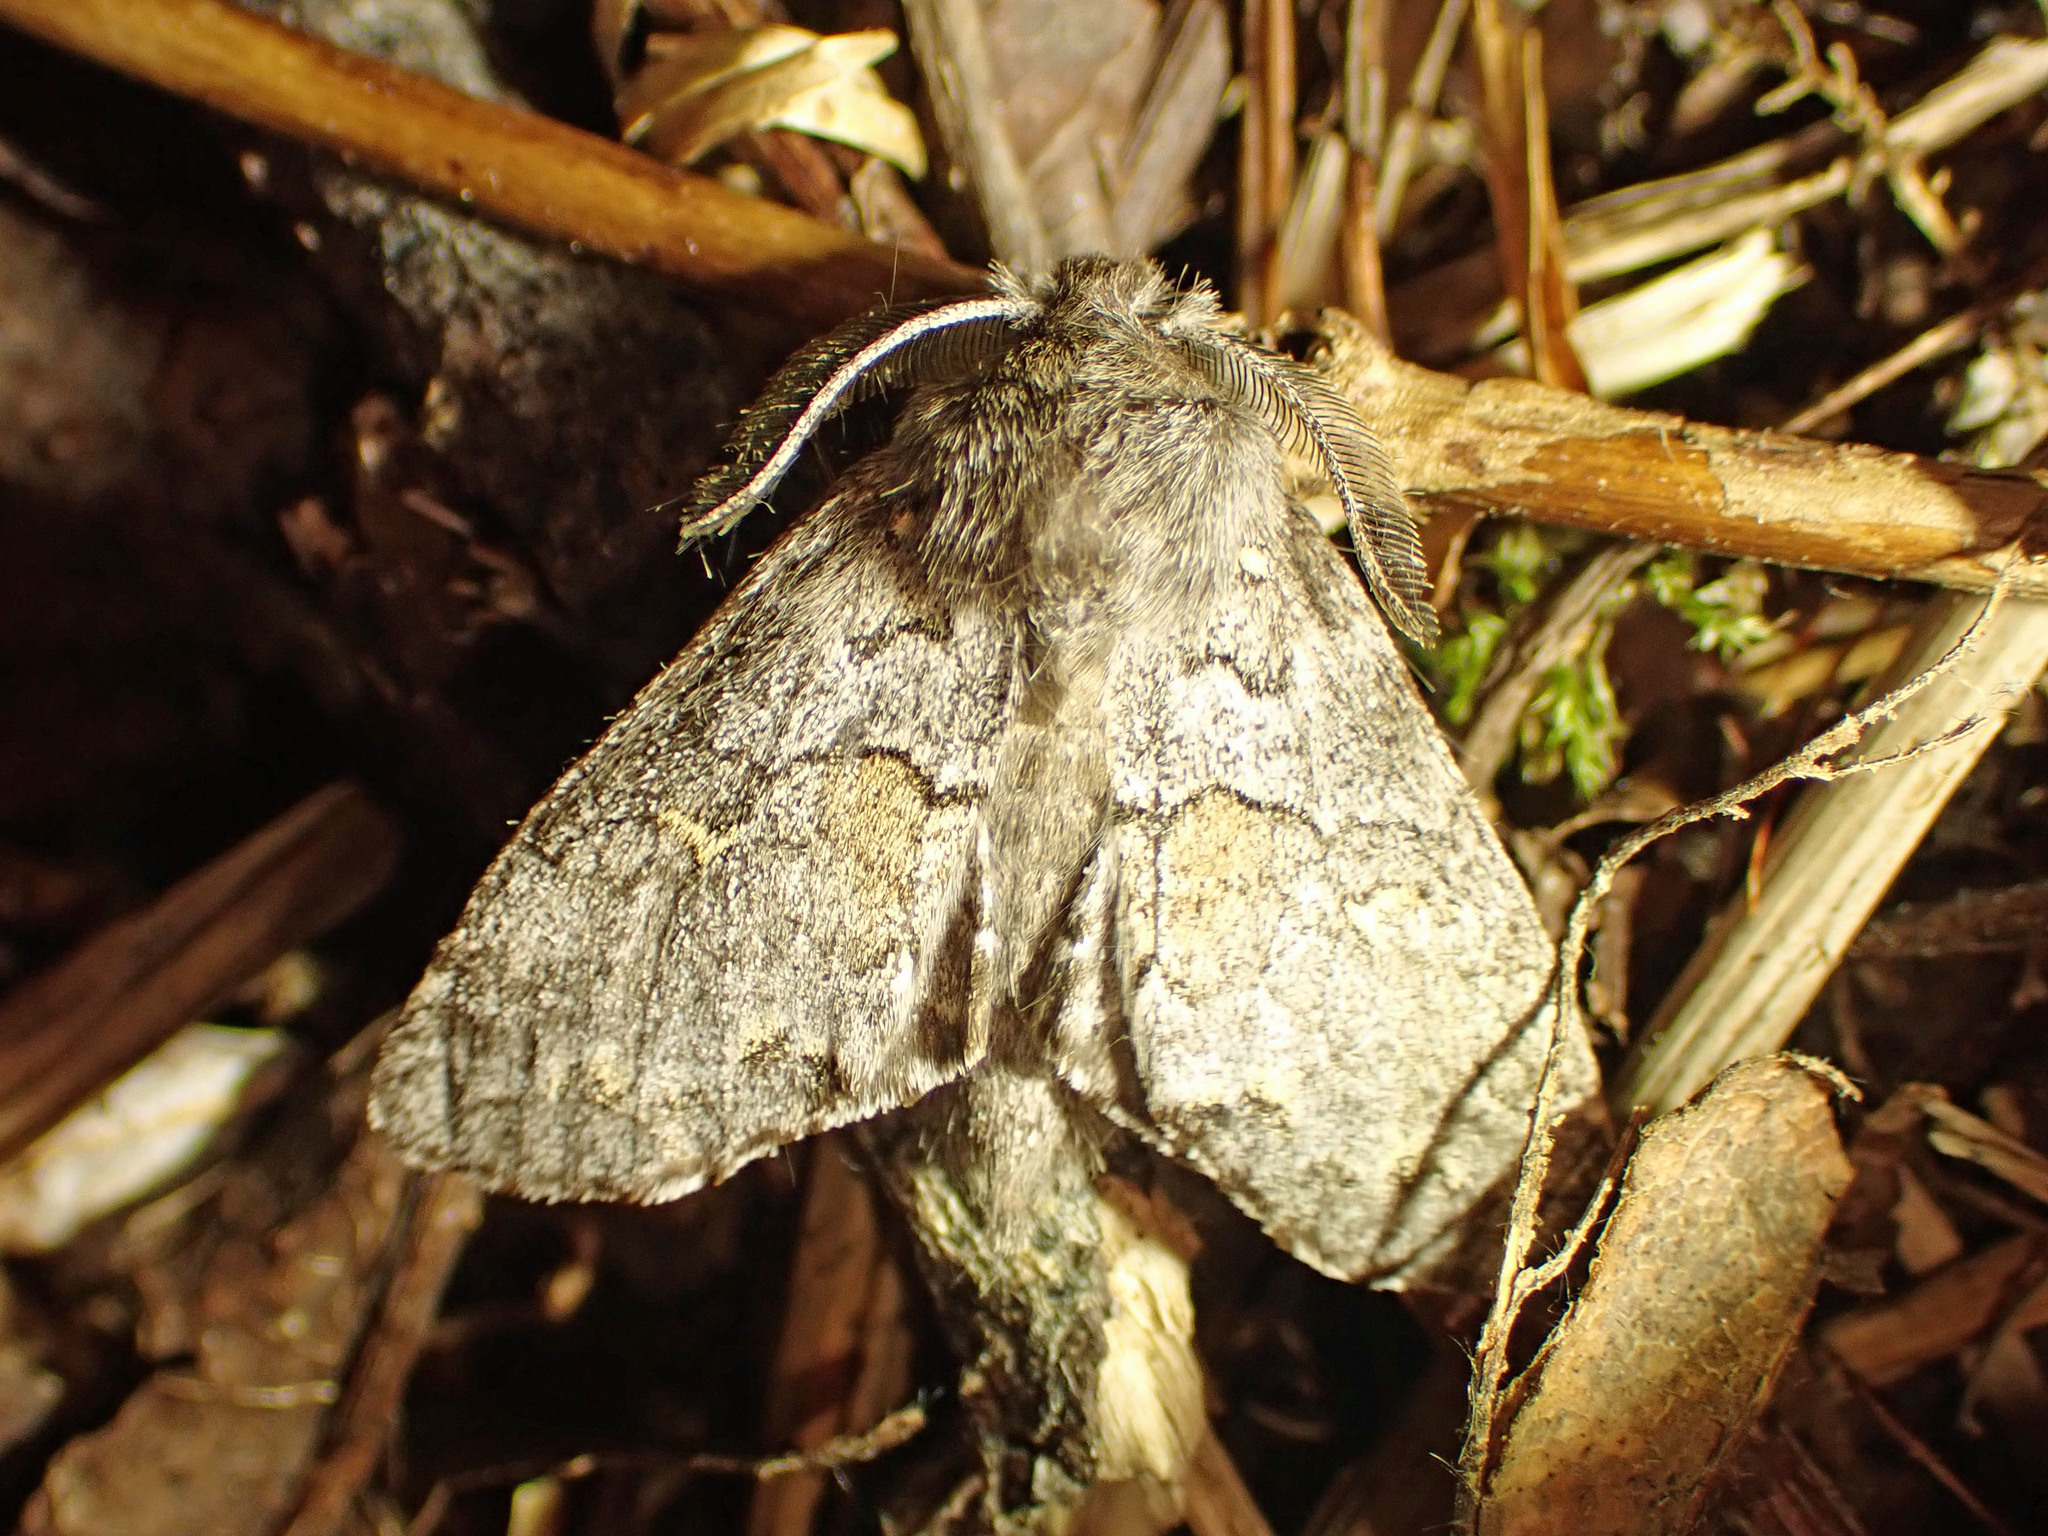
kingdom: Animalia
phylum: Arthropoda
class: Insecta
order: Lepidoptera
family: Notodontidae
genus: Gluphisia
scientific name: Gluphisia avimacula
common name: Four-spotted gluphisia moth
